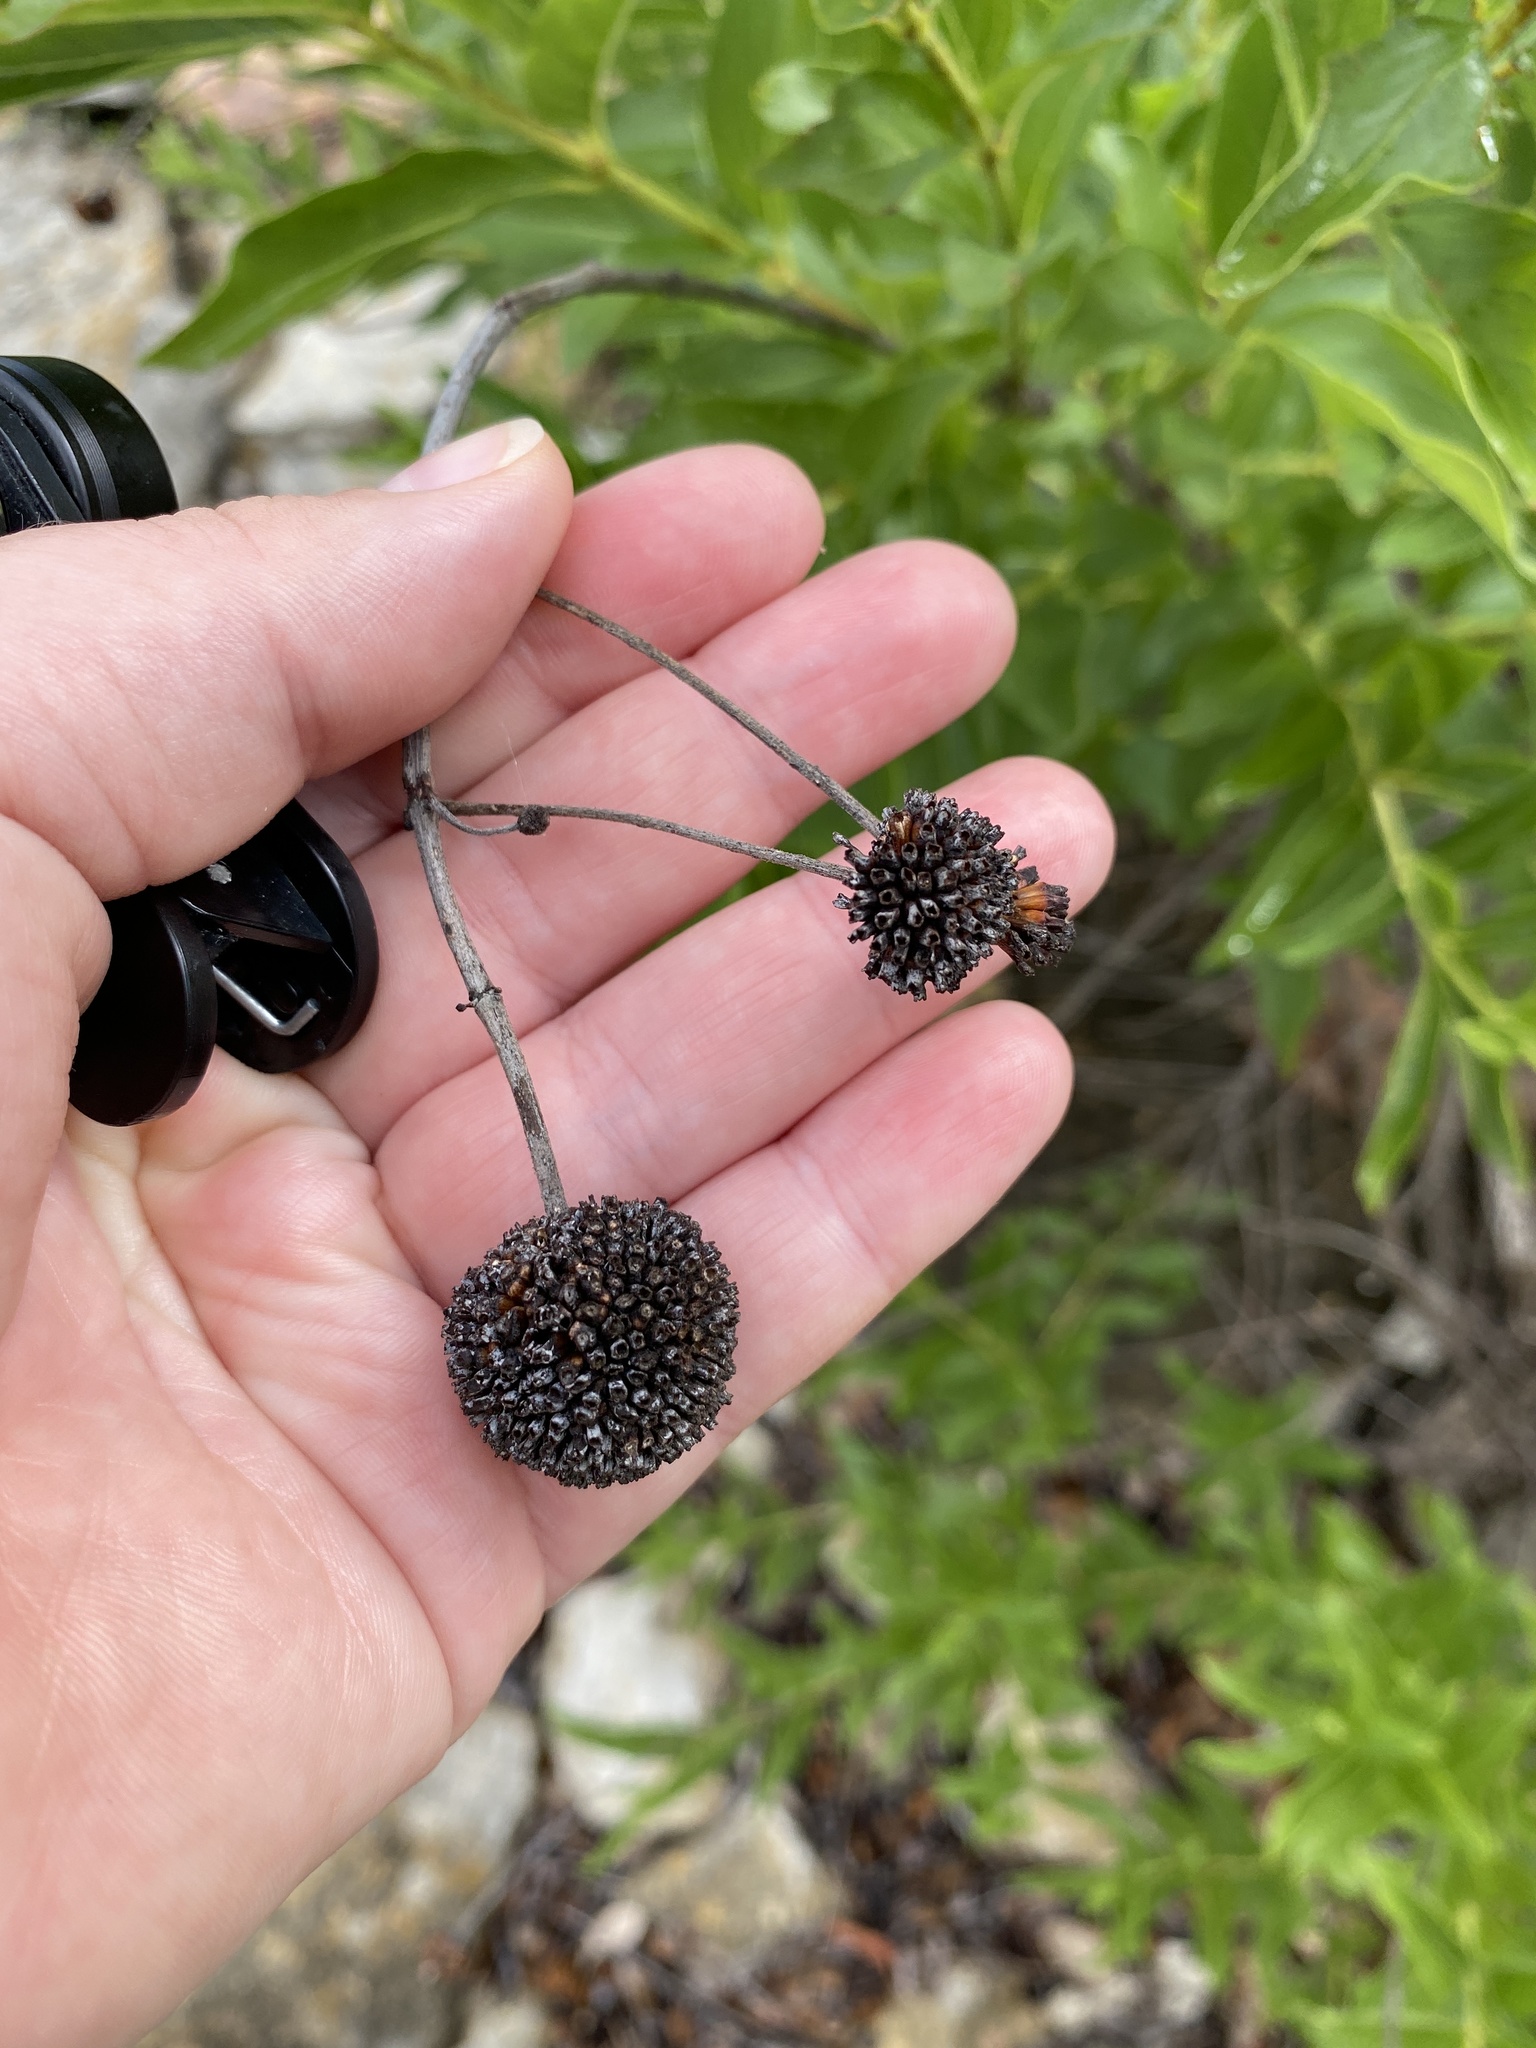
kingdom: Plantae
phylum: Tracheophyta
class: Magnoliopsida
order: Gentianales
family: Rubiaceae
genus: Cephalanthus
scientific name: Cephalanthus occidentalis
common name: Button-willow
